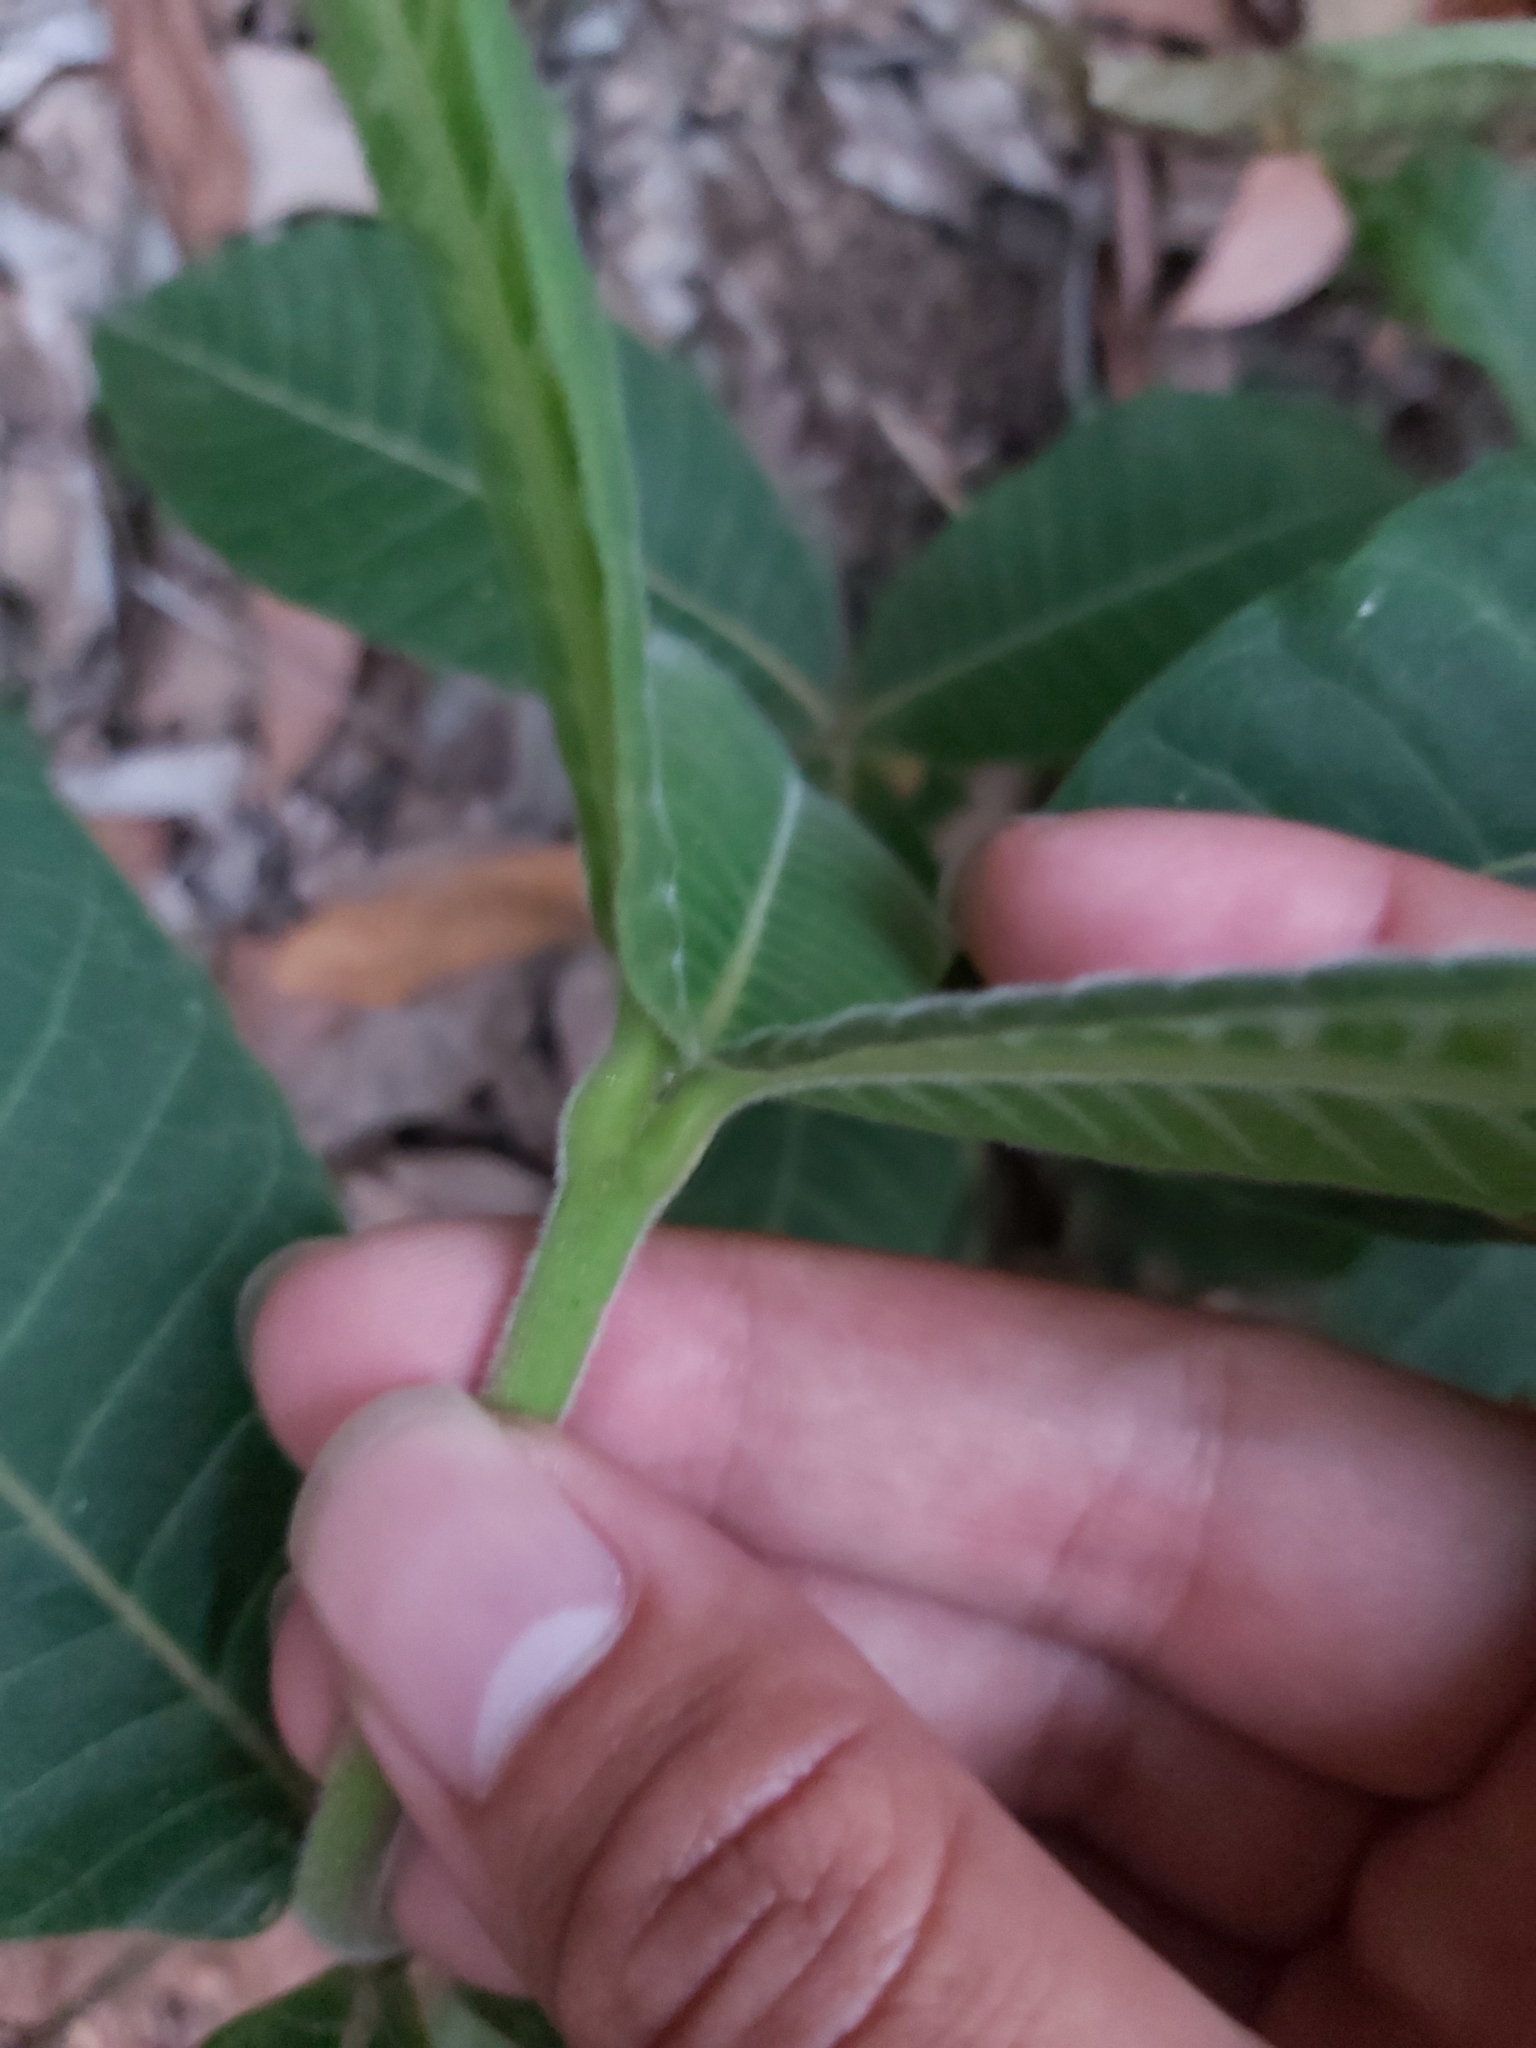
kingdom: Plantae
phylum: Tracheophyta
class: Magnoliopsida
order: Gentianales
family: Apocynaceae
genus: Alstonia
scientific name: Alstonia muelleriana
